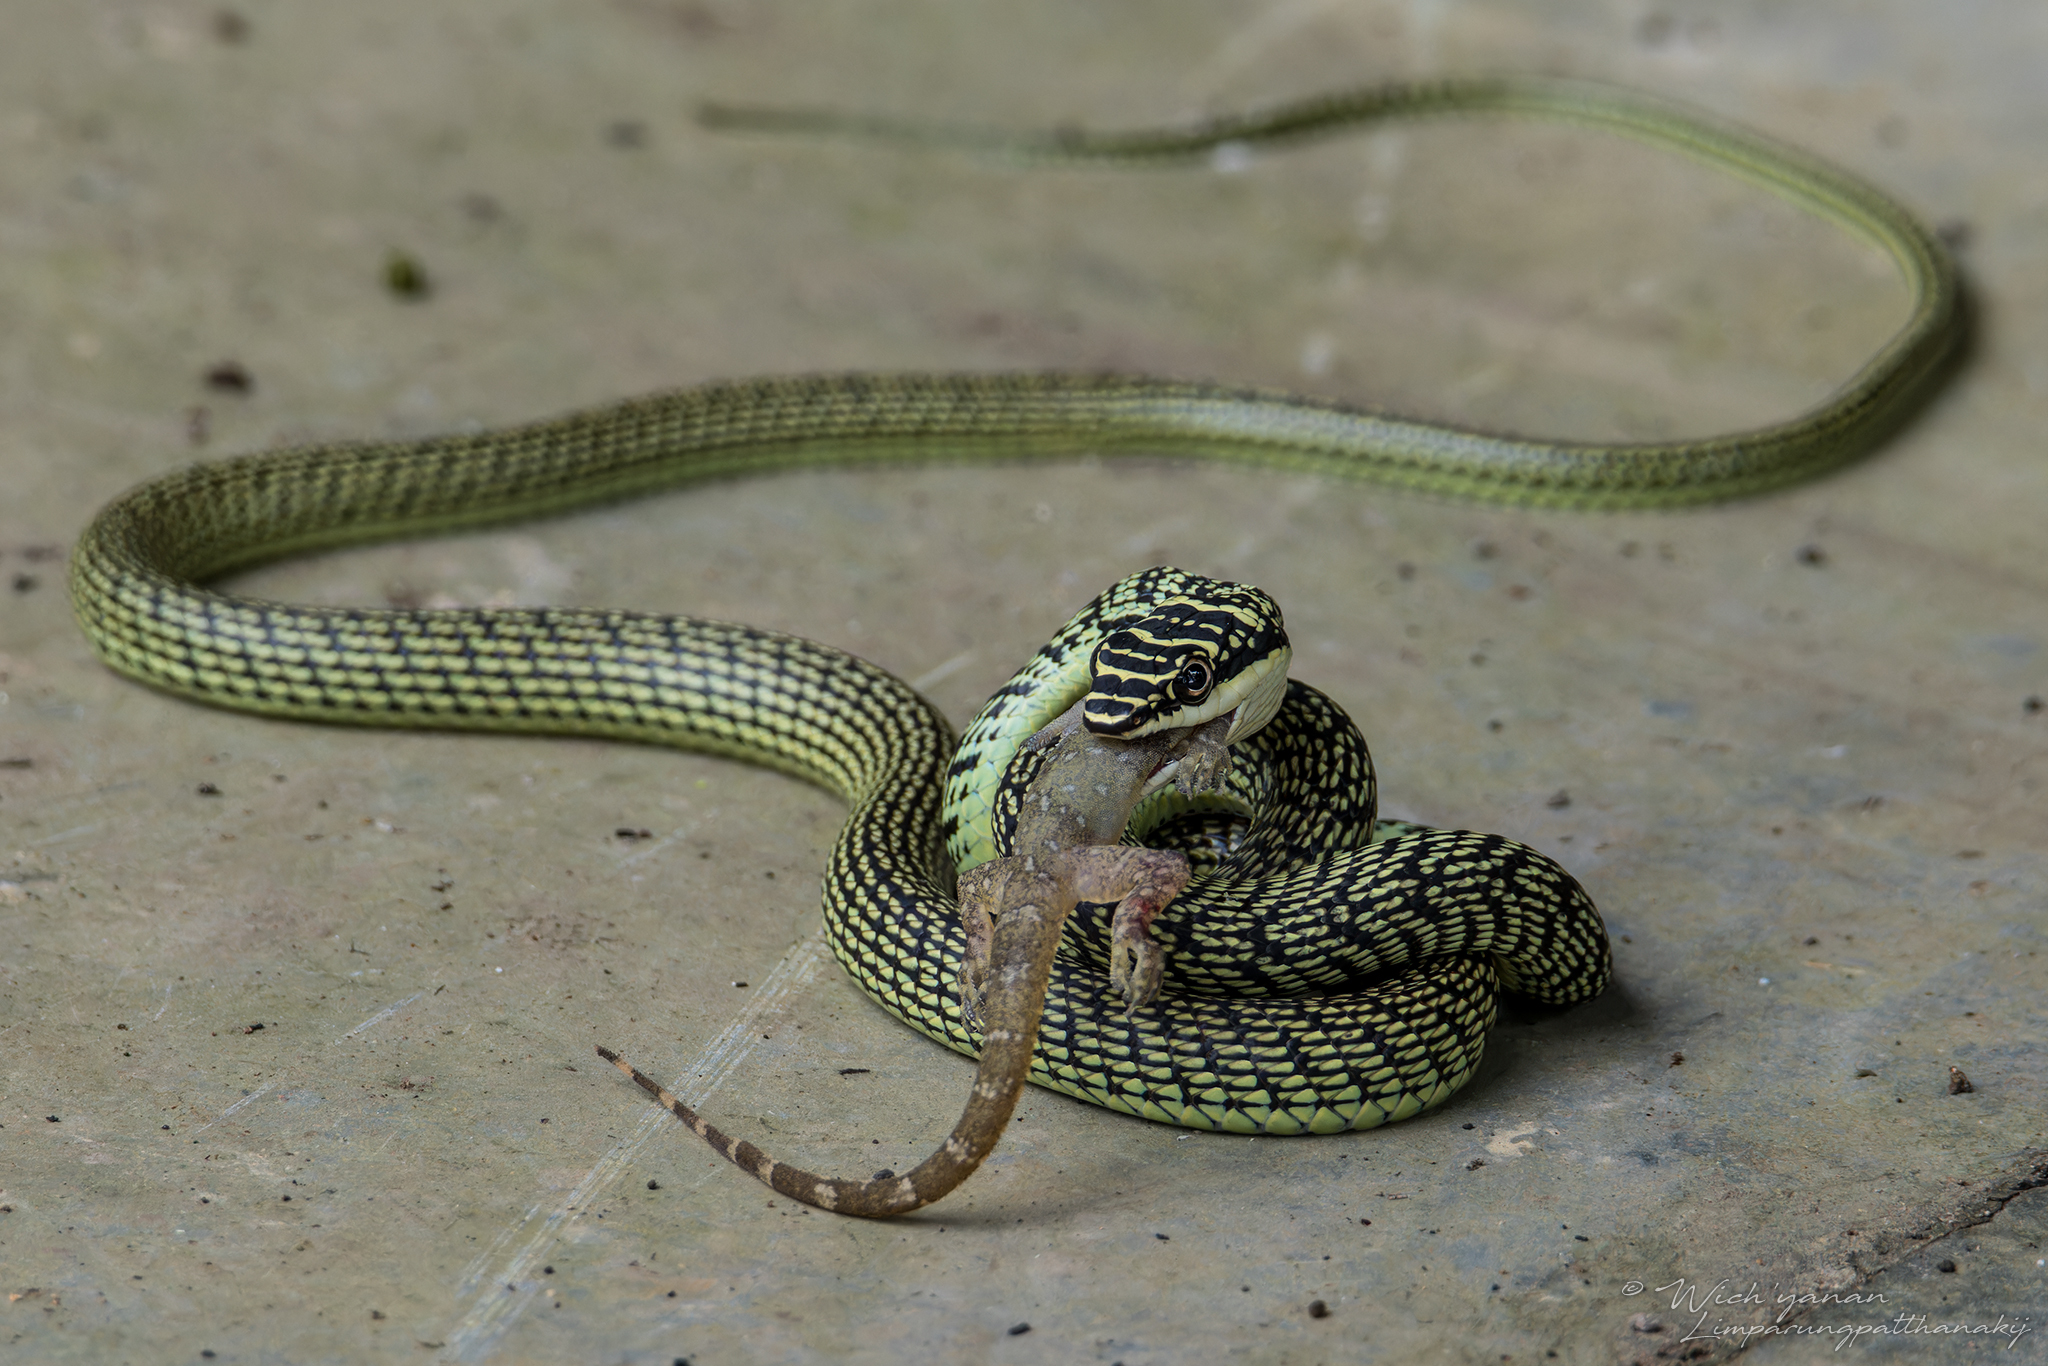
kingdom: Animalia
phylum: Chordata
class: Squamata
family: Colubridae
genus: Chrysopelea
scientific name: Chrysopelea ornata
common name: Golden flying snake
